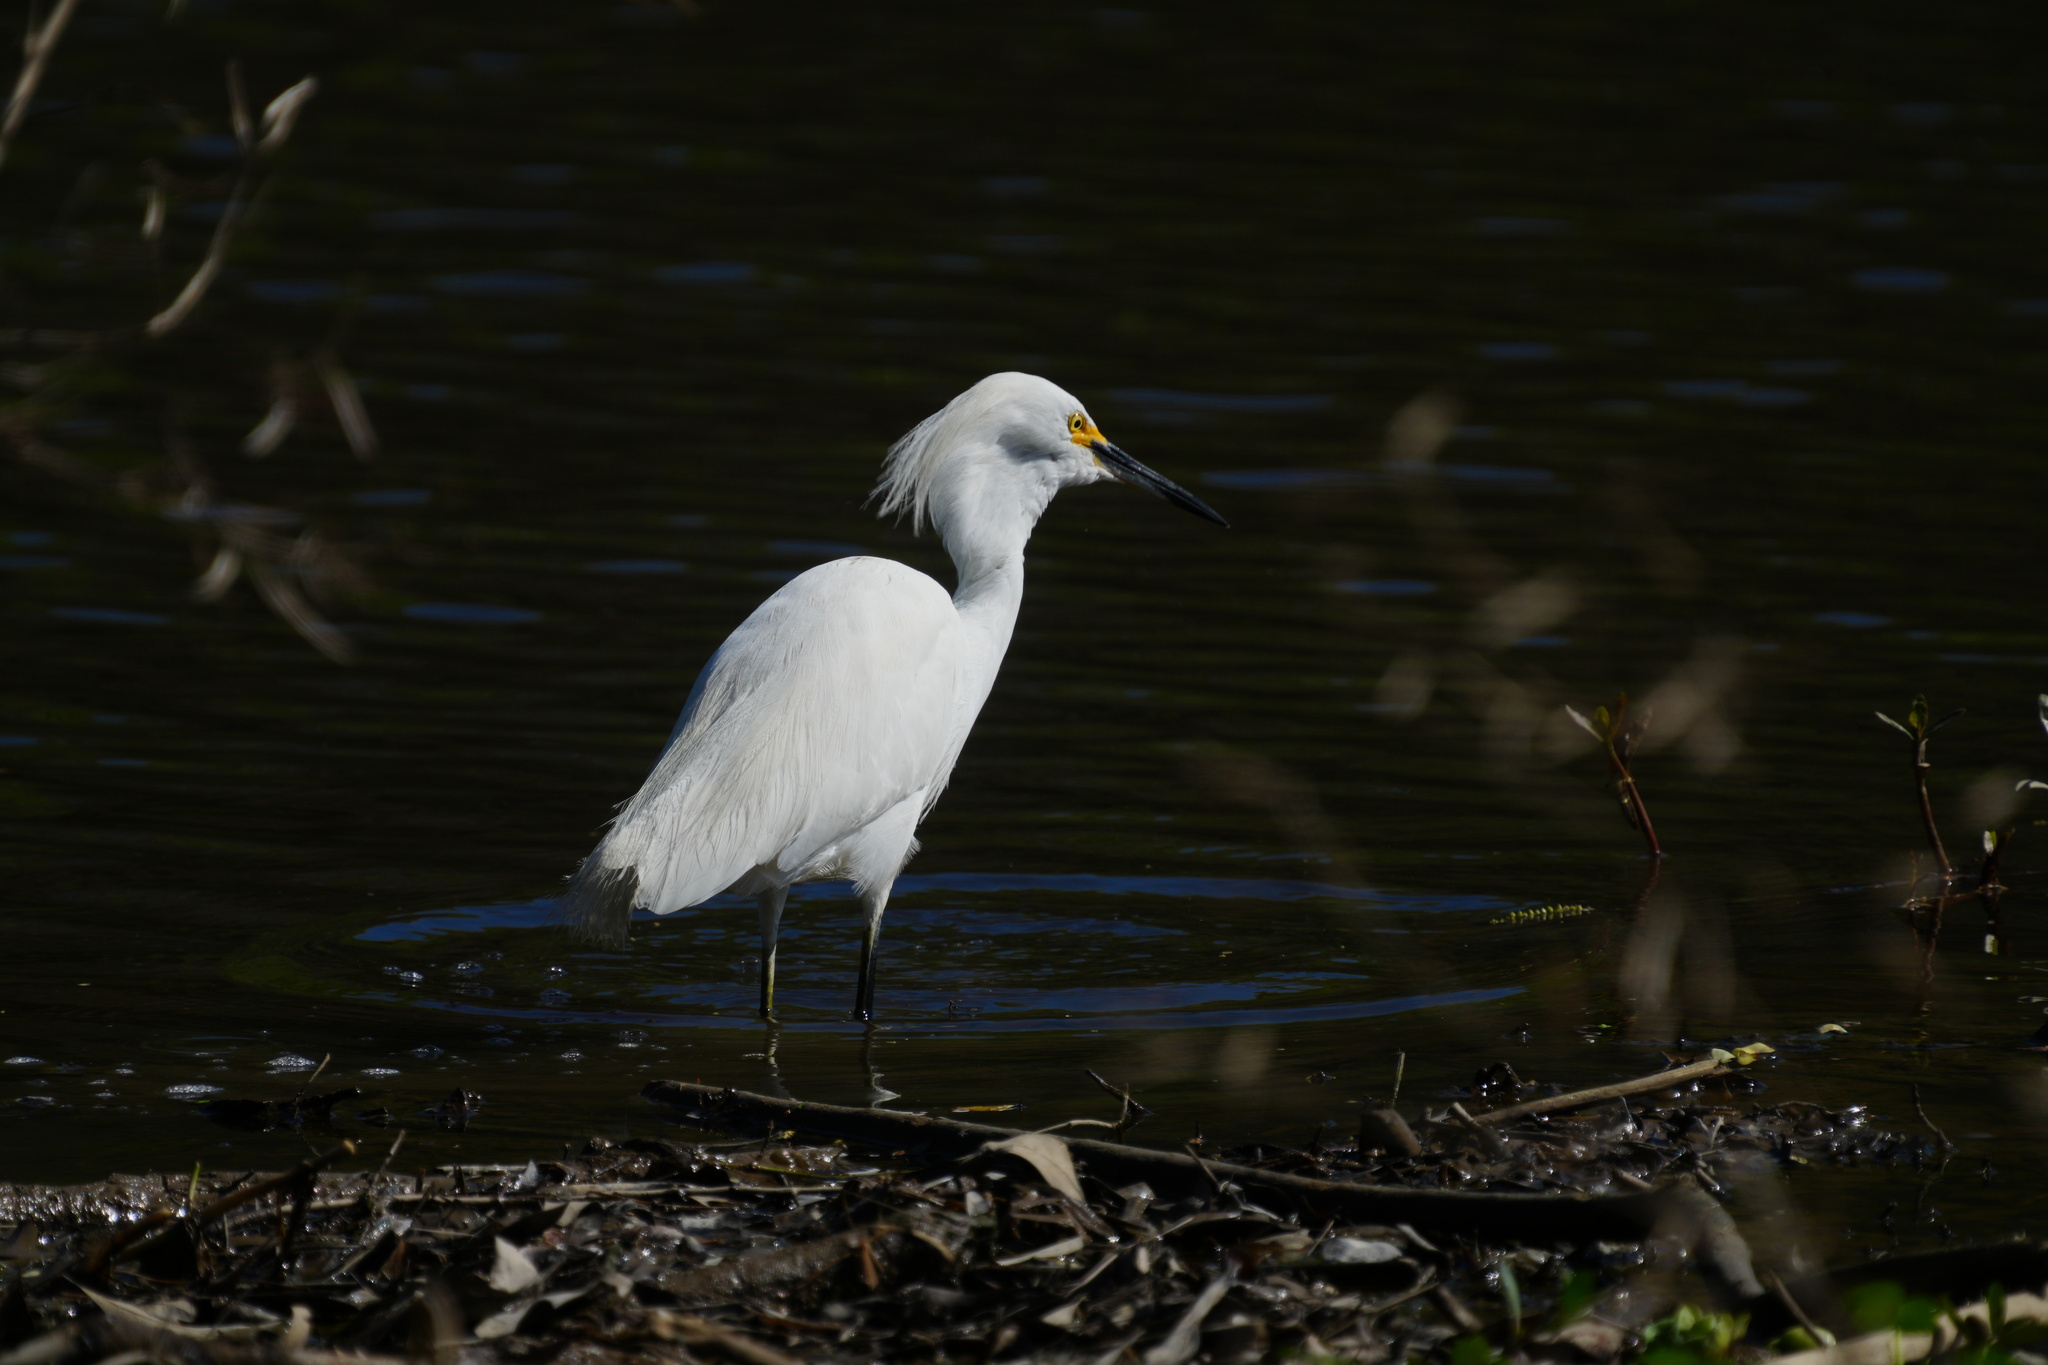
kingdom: Animalia
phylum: Chordata
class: Aves
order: Pelecaniformes
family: Ardeidae
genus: Egretta
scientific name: Egretta thula
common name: Snowy egret
